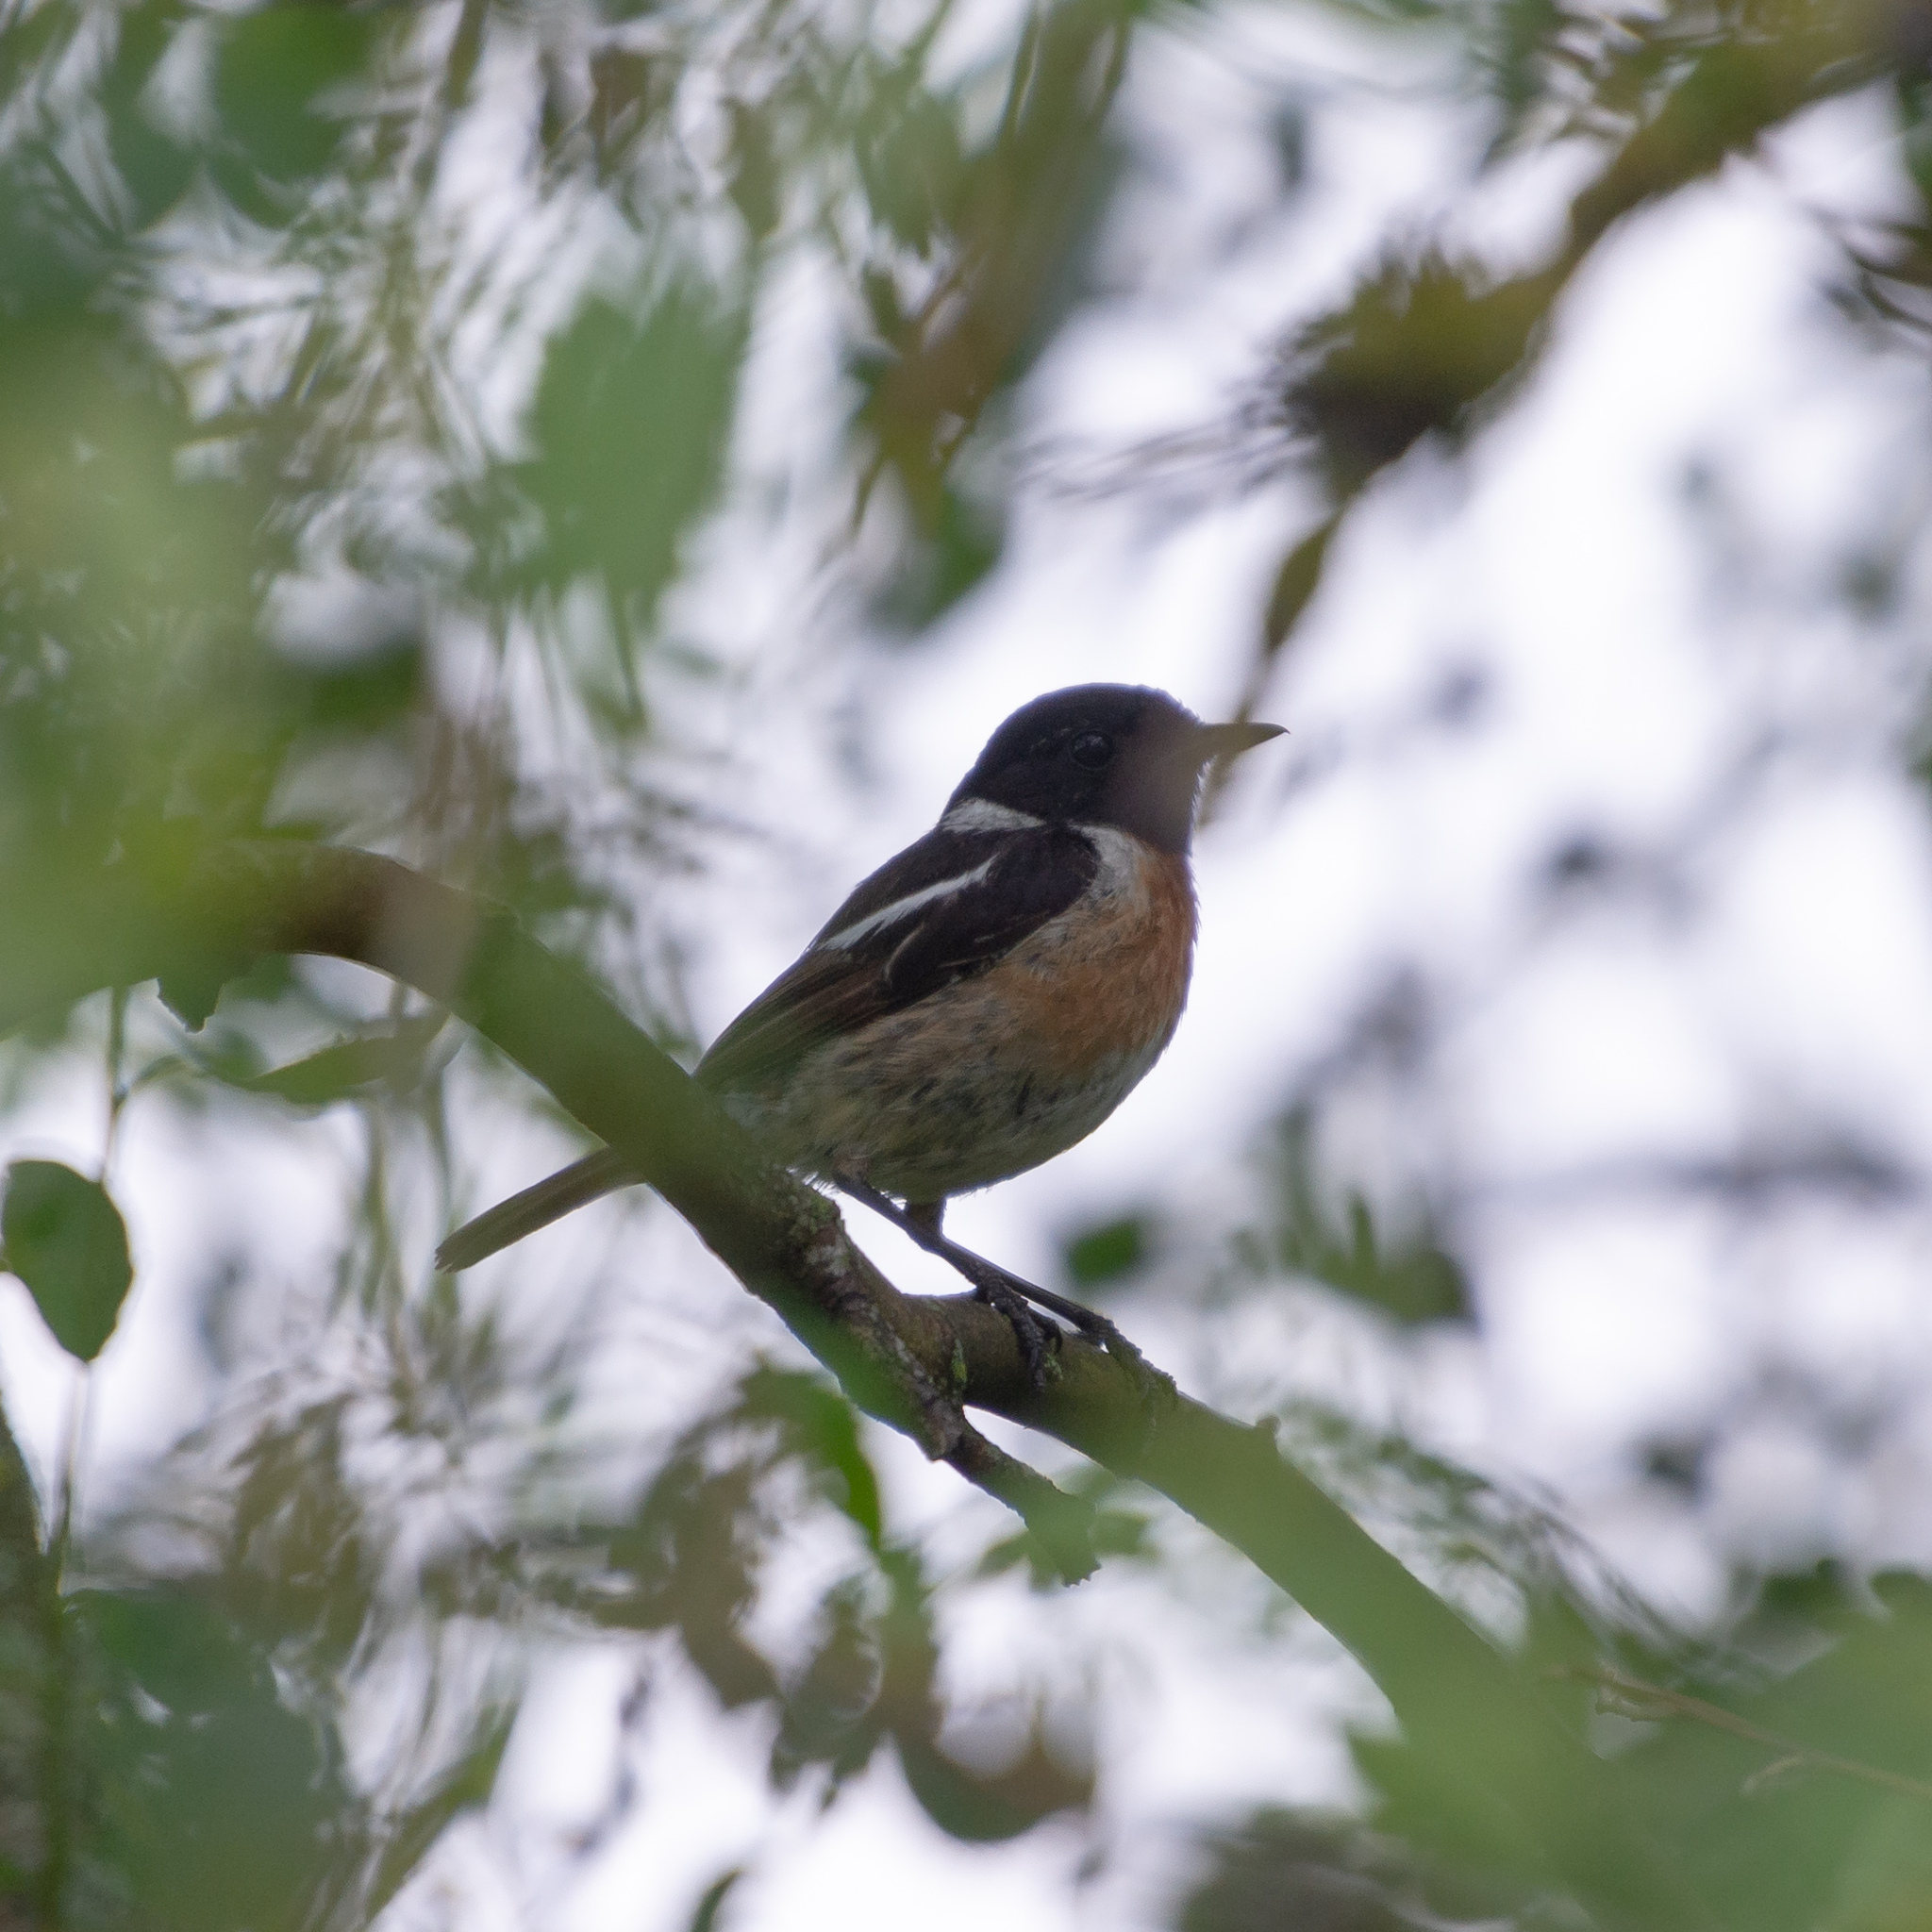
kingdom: Animalia
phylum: Chordata
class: Aves
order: Passeriformes
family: Muscicapidae
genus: Saxicola
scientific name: Saxicola rubicola
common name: European stonechat
